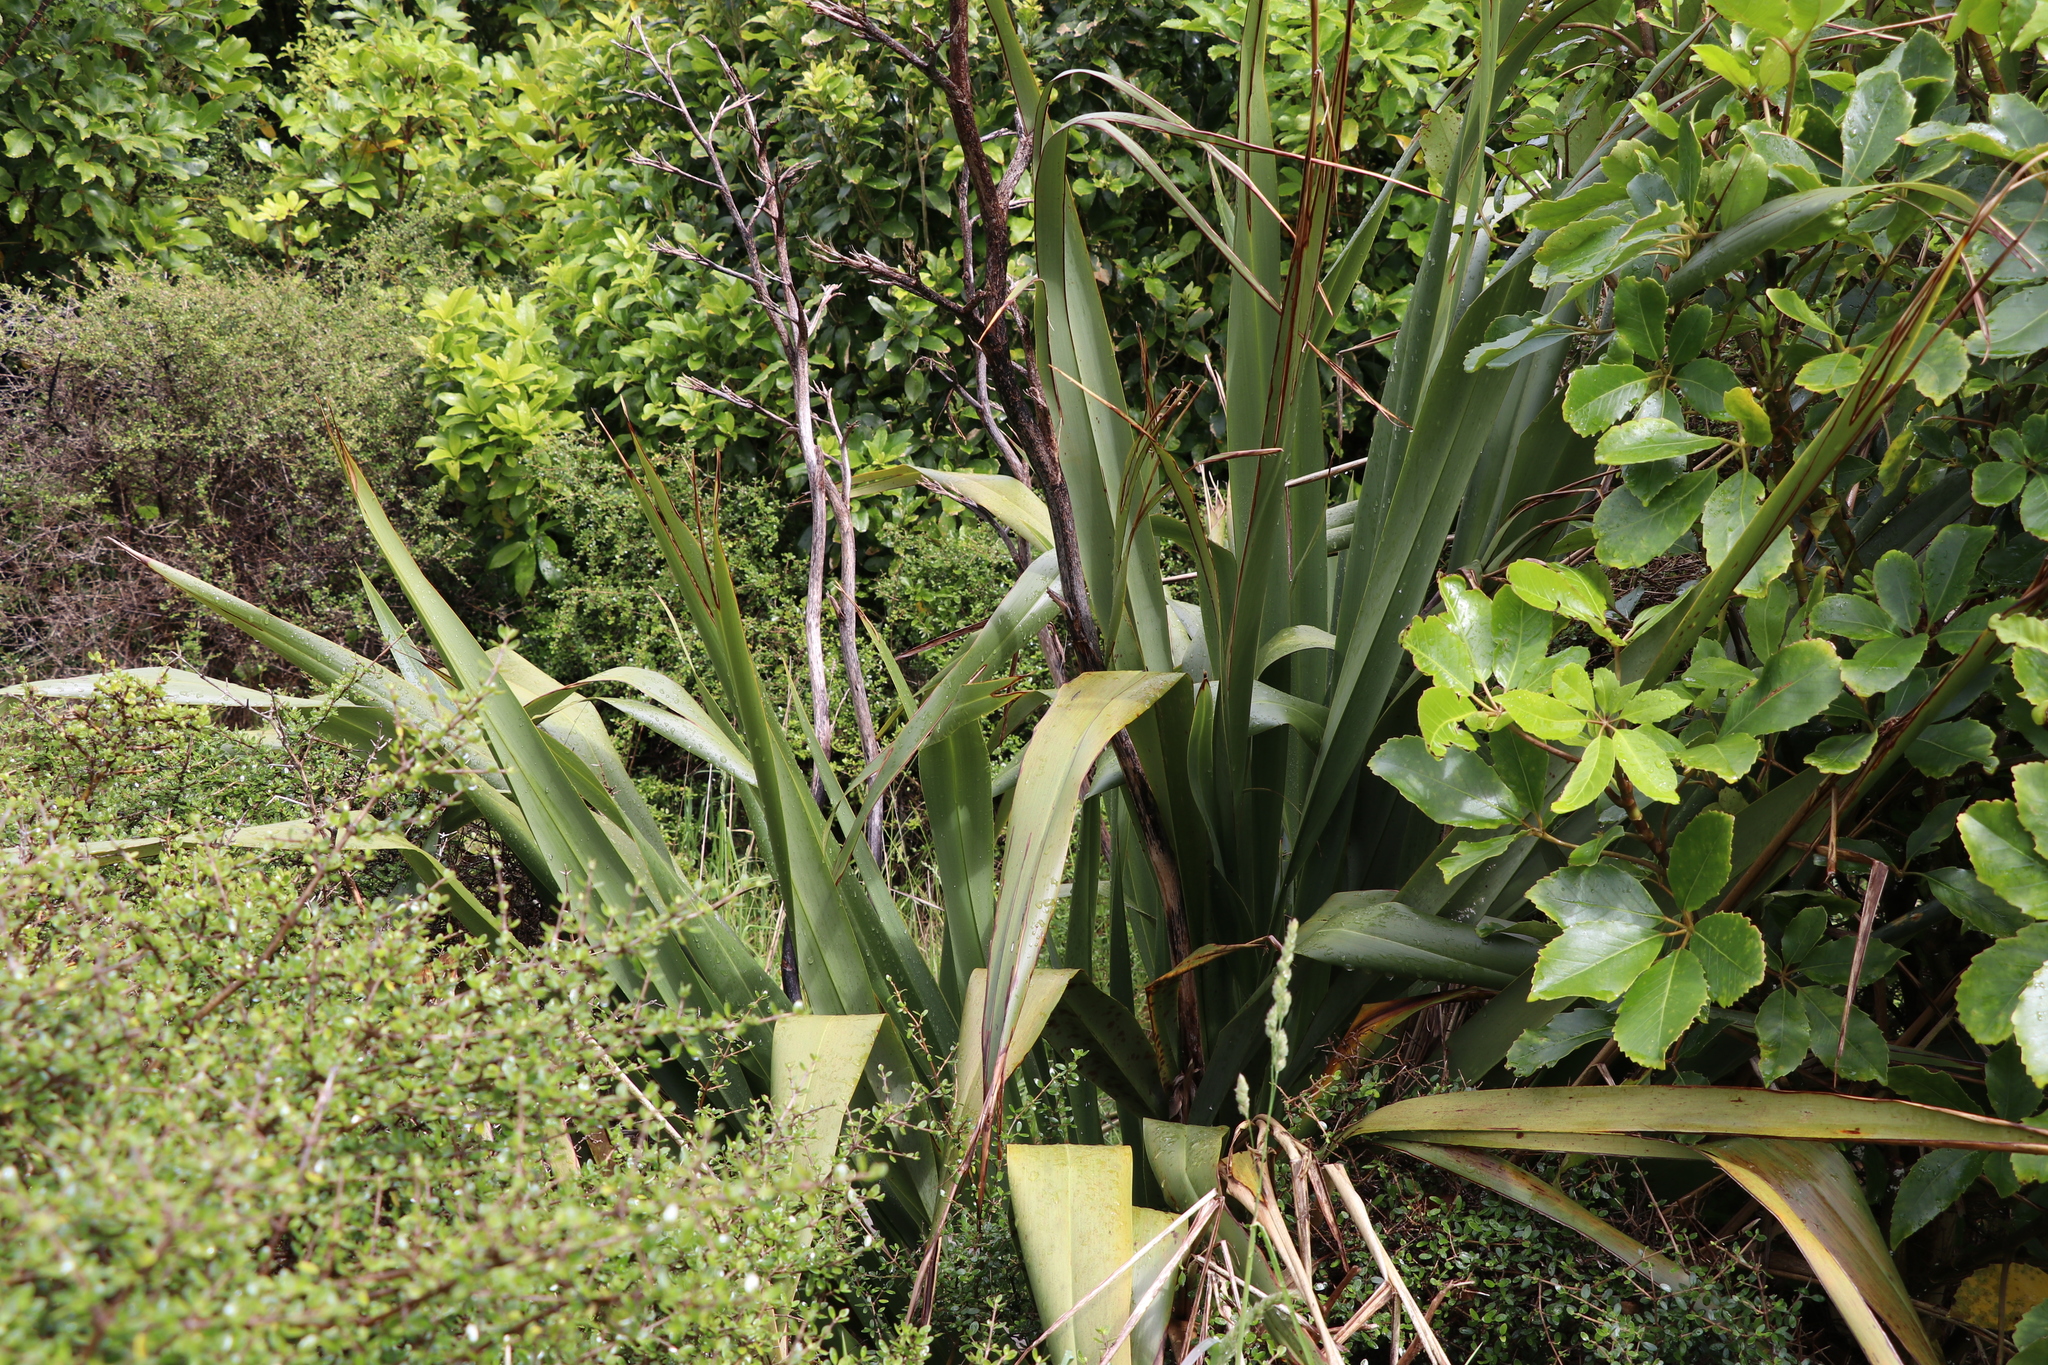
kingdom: Plantae
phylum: Tracheophyta
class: Liliopsida
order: Asparagales
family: Asphodelaceae
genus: Phormium
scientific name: Phormium tenax
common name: New zealand flax
